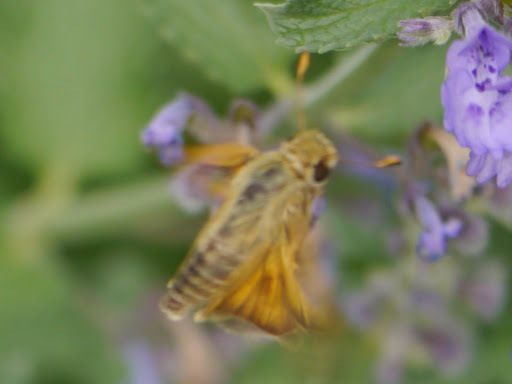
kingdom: Animalia
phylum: Arthropoda
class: Insecta
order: Lepidoptera
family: Hesperiidae
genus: Atalopedes
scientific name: Atalopedes
